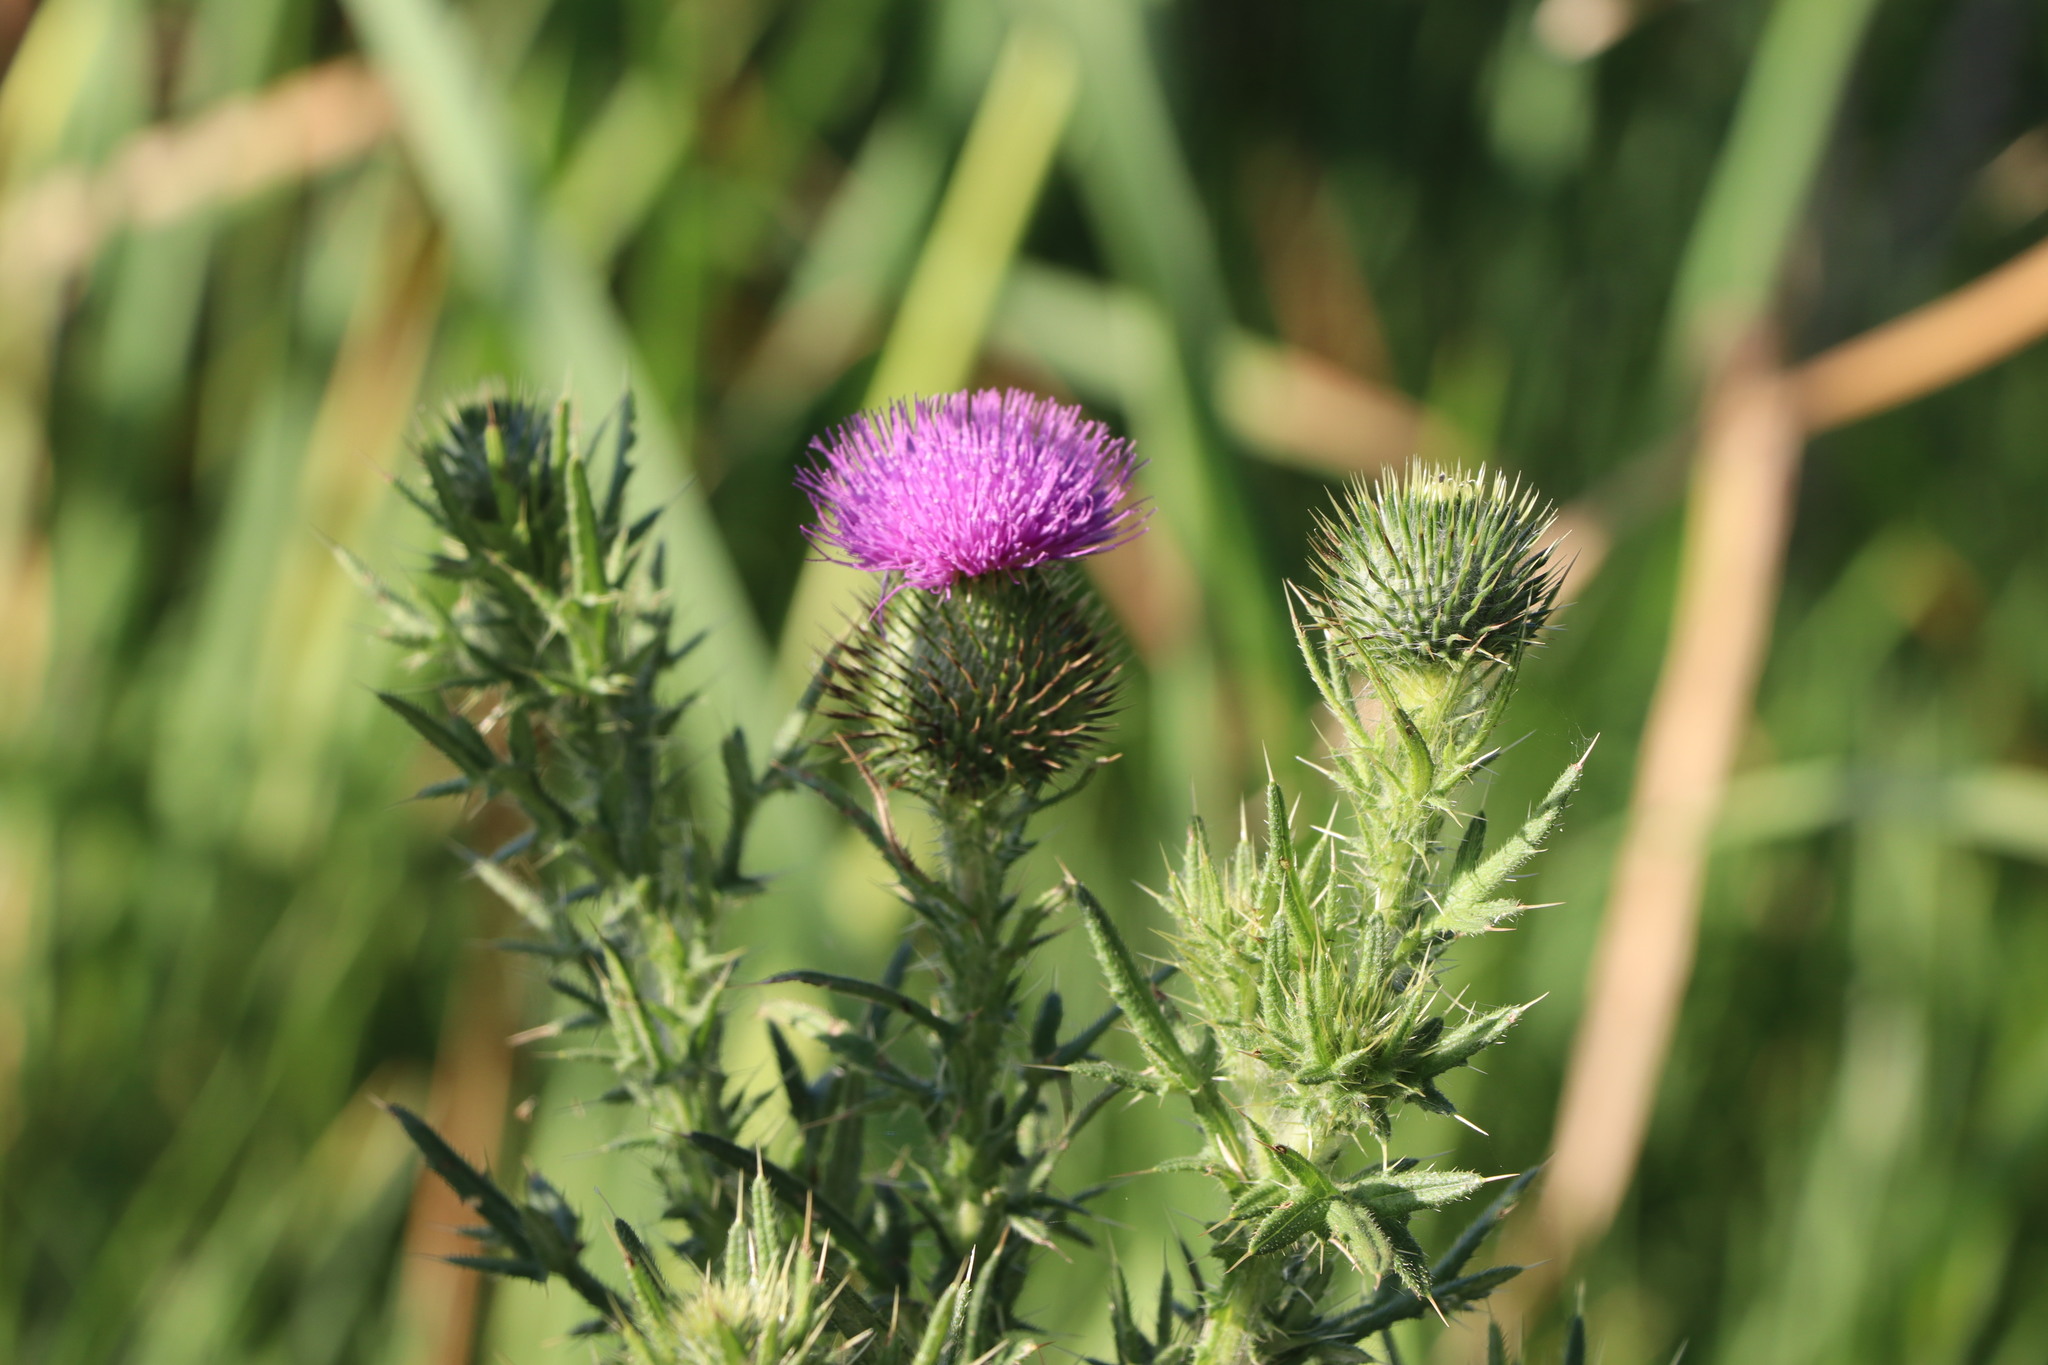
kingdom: Plantae
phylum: Tracheophyta
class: Magnoliopsida
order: Asterales
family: Asteraceae
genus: Cirsium
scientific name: Cirsium vulgare
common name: Bull thistle
